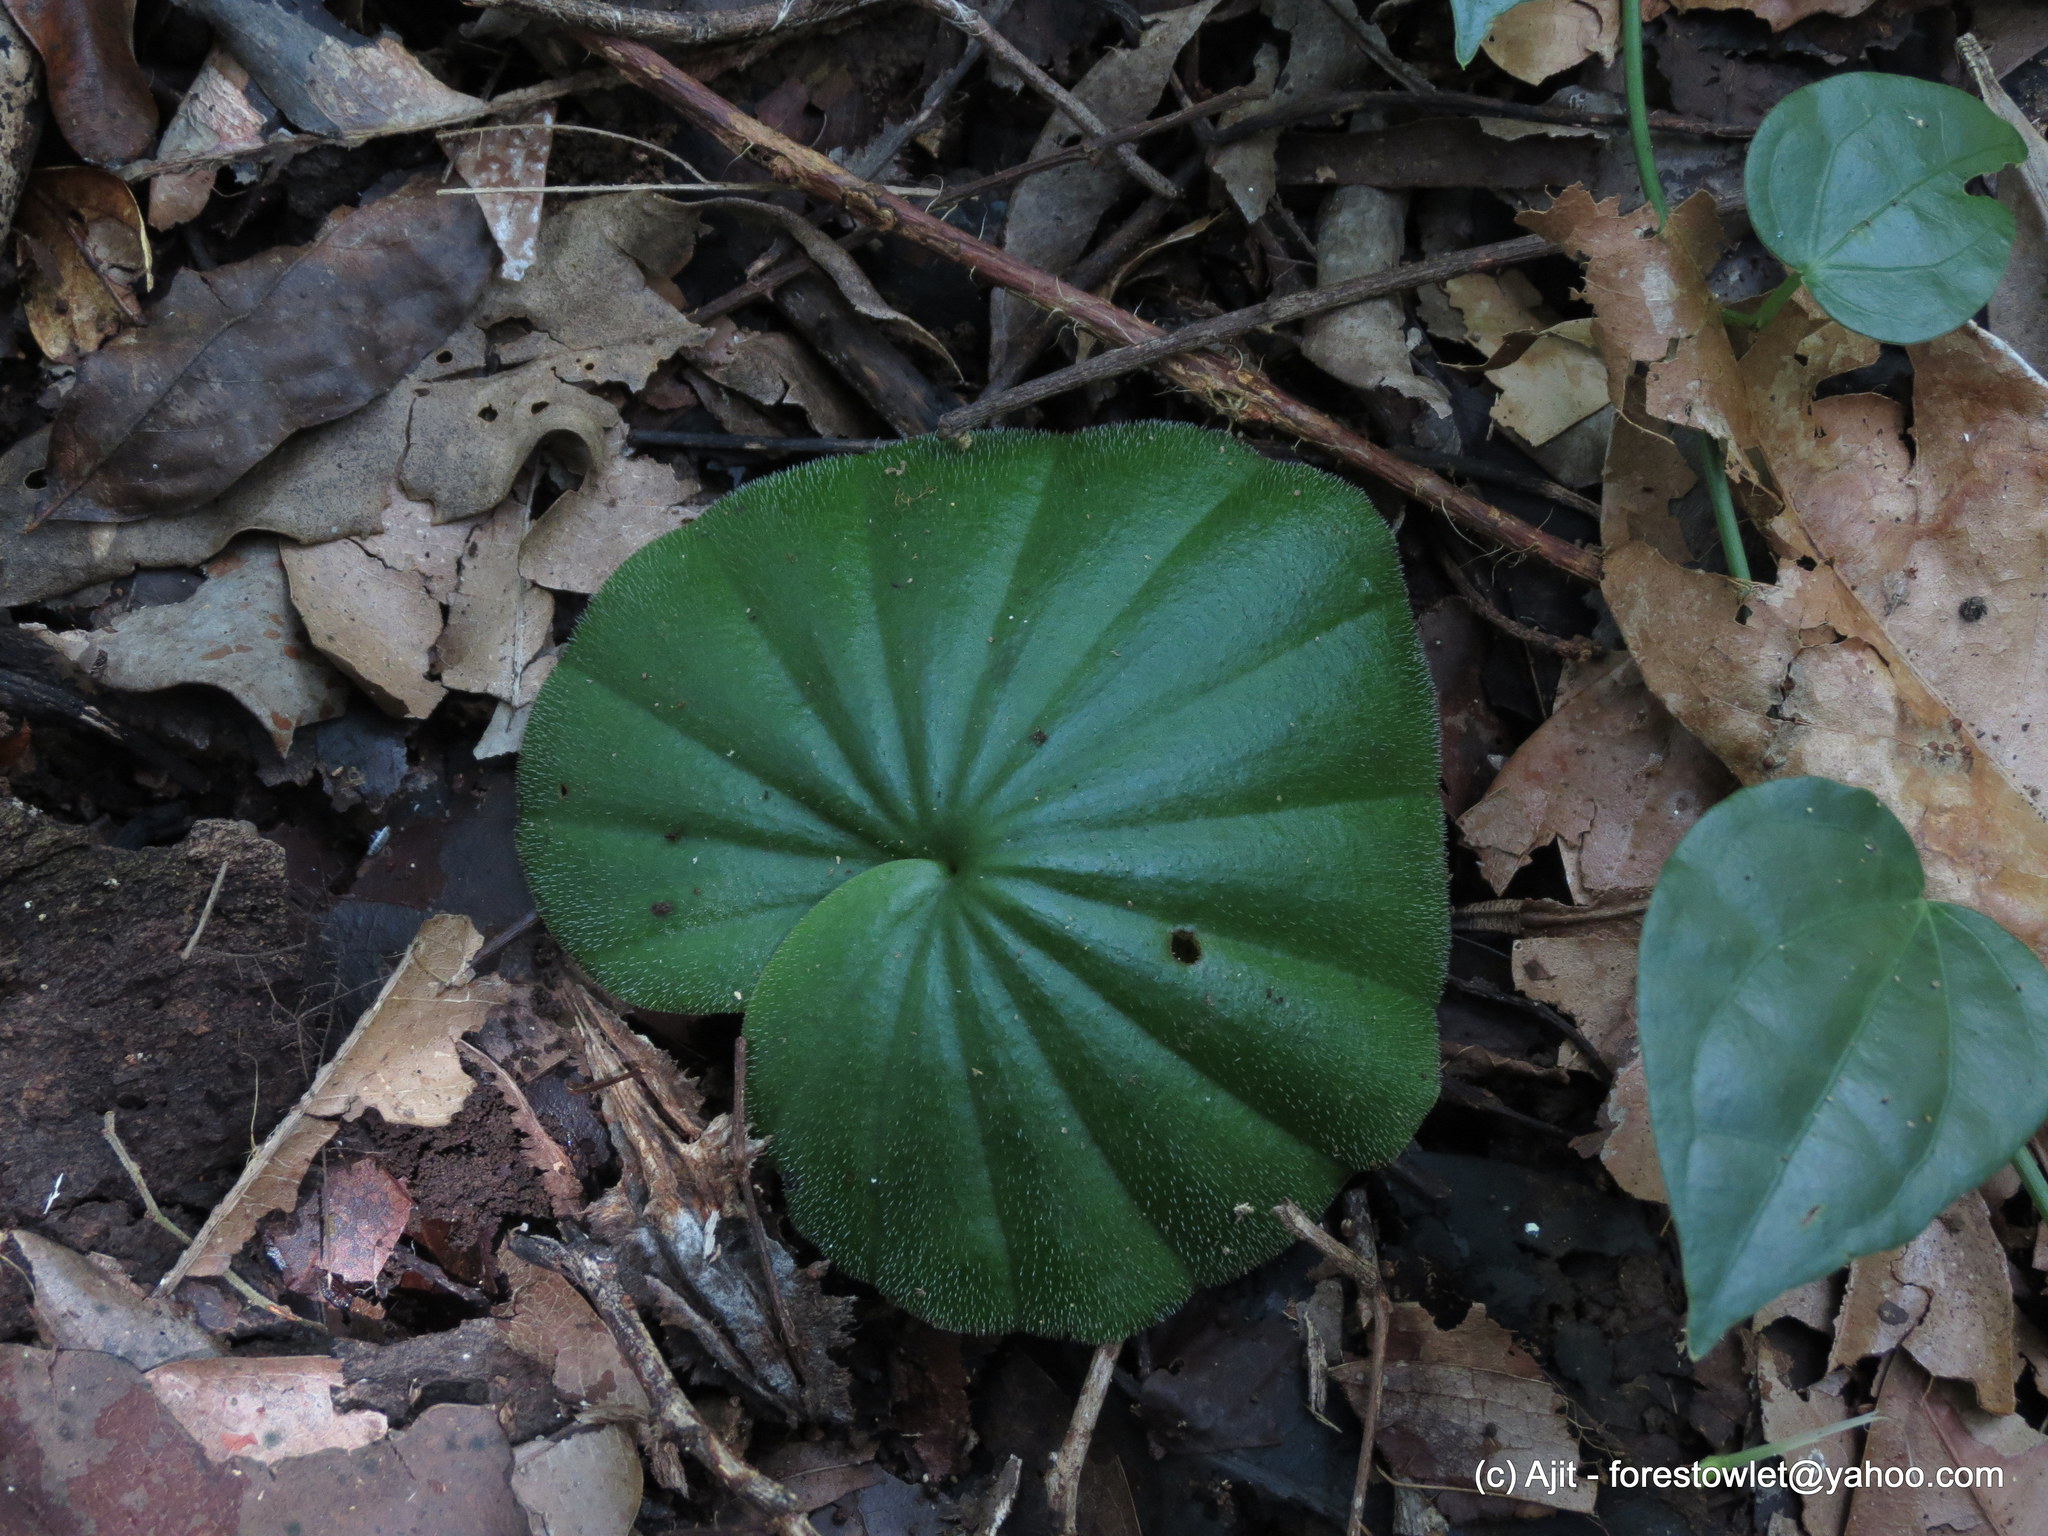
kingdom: Plantae
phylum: Tracheophyta
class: Liliopsida
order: Asparagales
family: Orchidaceae
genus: Nervilia
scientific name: Nervilia simplex
